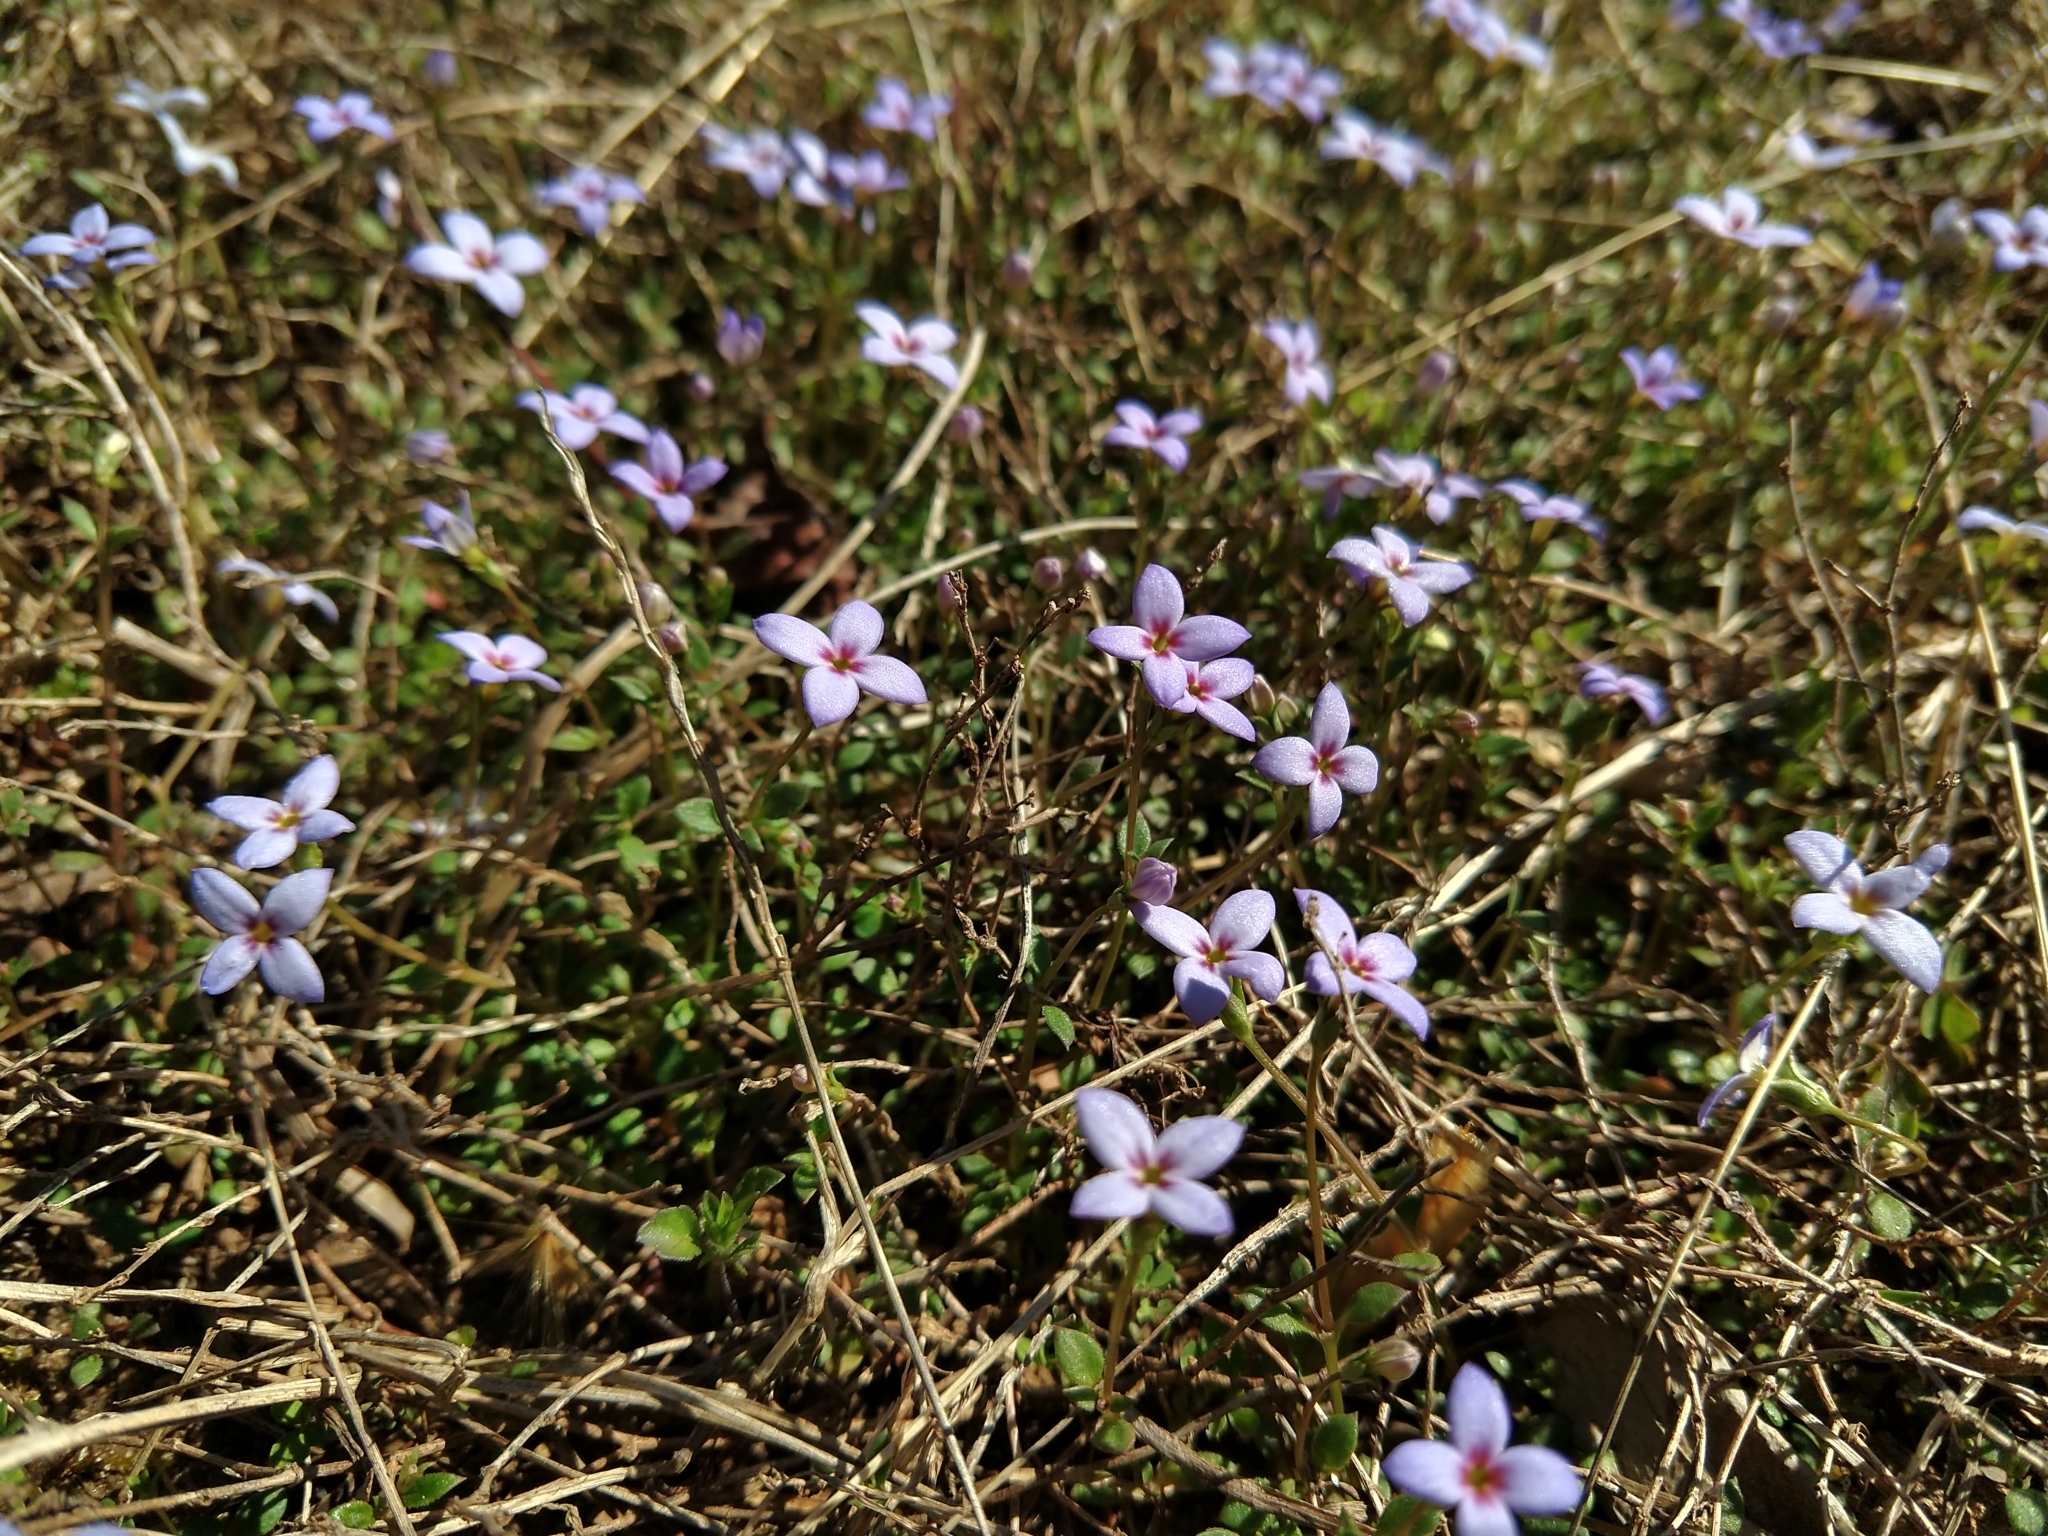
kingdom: Plantae
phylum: Tracheophyta
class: Magnoliopsida
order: Gentianales
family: Rubiaceae
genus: Houstonia
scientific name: Houstonia pusilla
